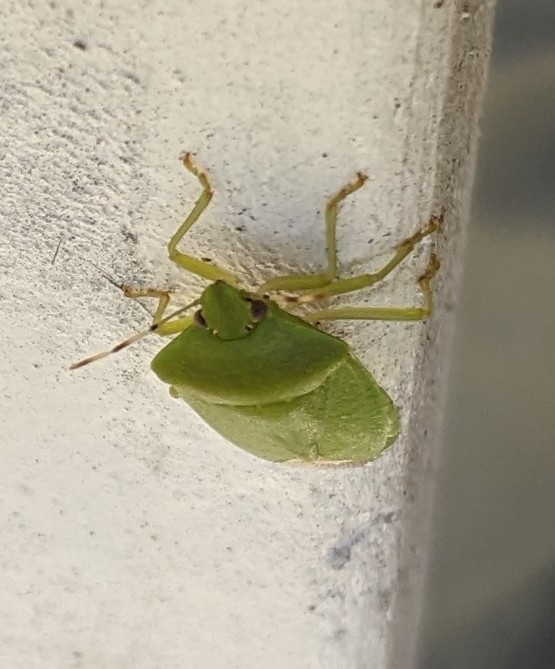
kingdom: Animalia
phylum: Arthropoda
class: Insecta
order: Hemiptera
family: Pentatomidae
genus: Chinavia
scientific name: Chinavia hilaris
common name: Green stink bug
